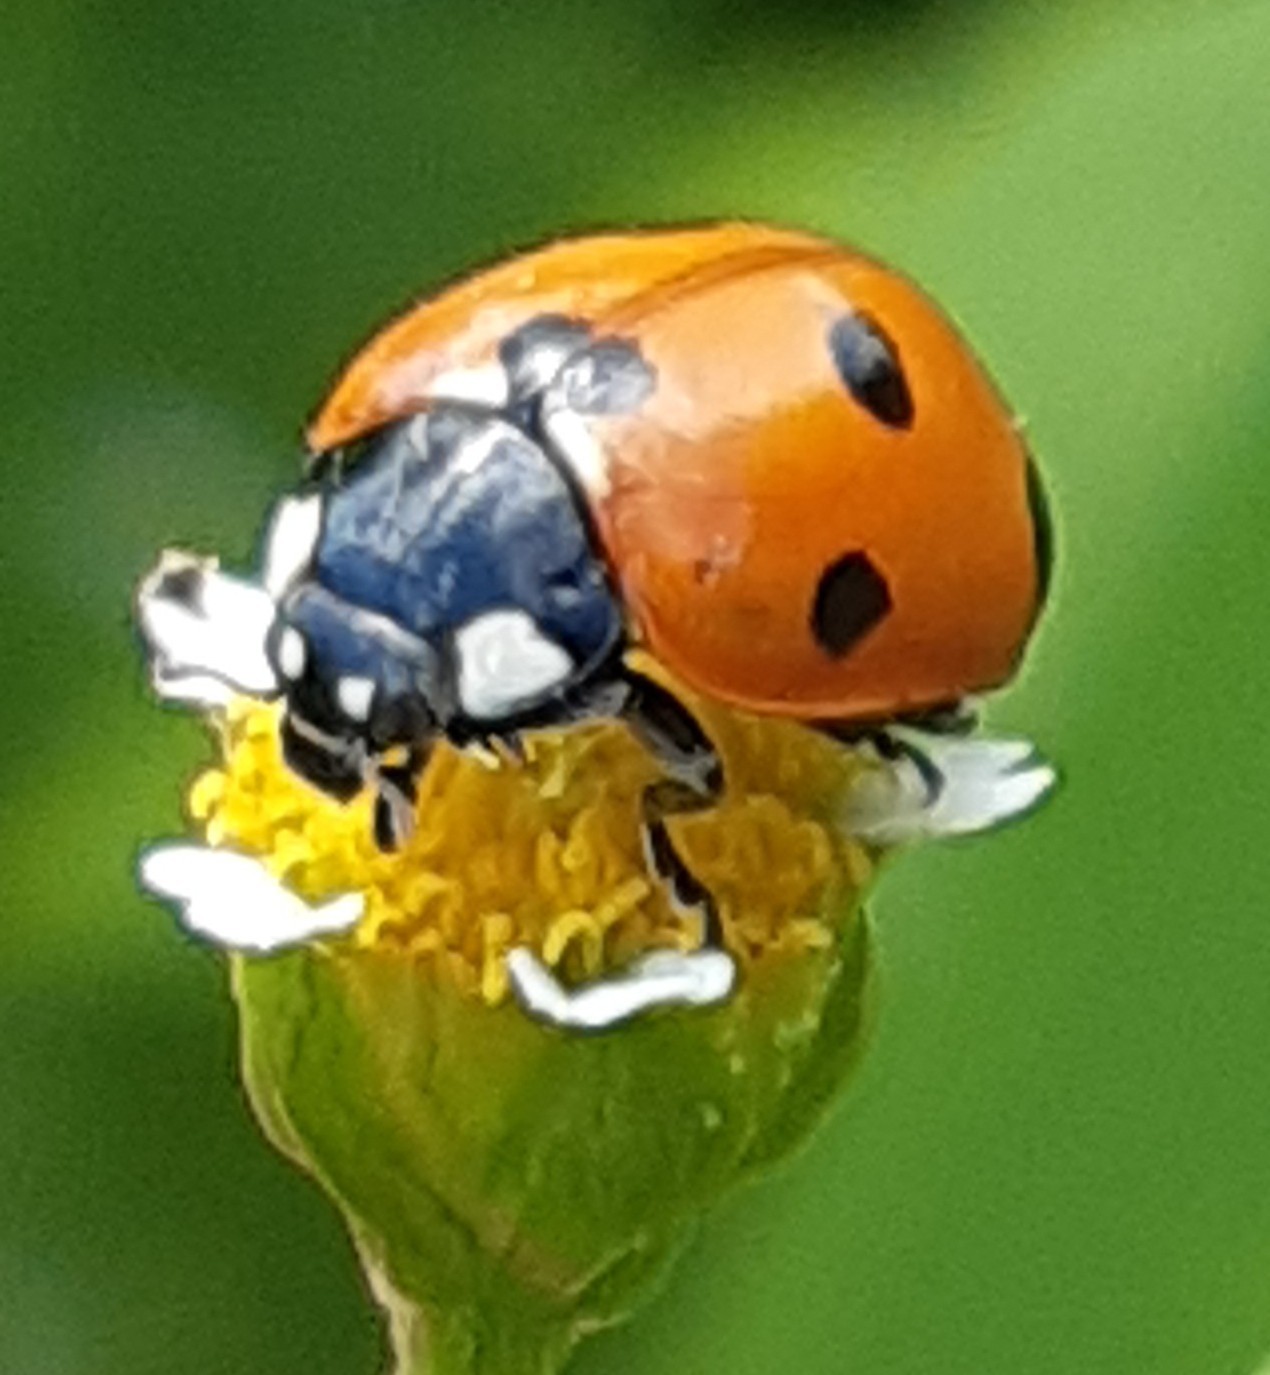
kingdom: Animalia
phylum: Arthropoda
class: Insecta
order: Coleoptera
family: Coccinellidae
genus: Coccinella
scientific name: Coccinella septempunctata
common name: Sevenspotted lady beetle
